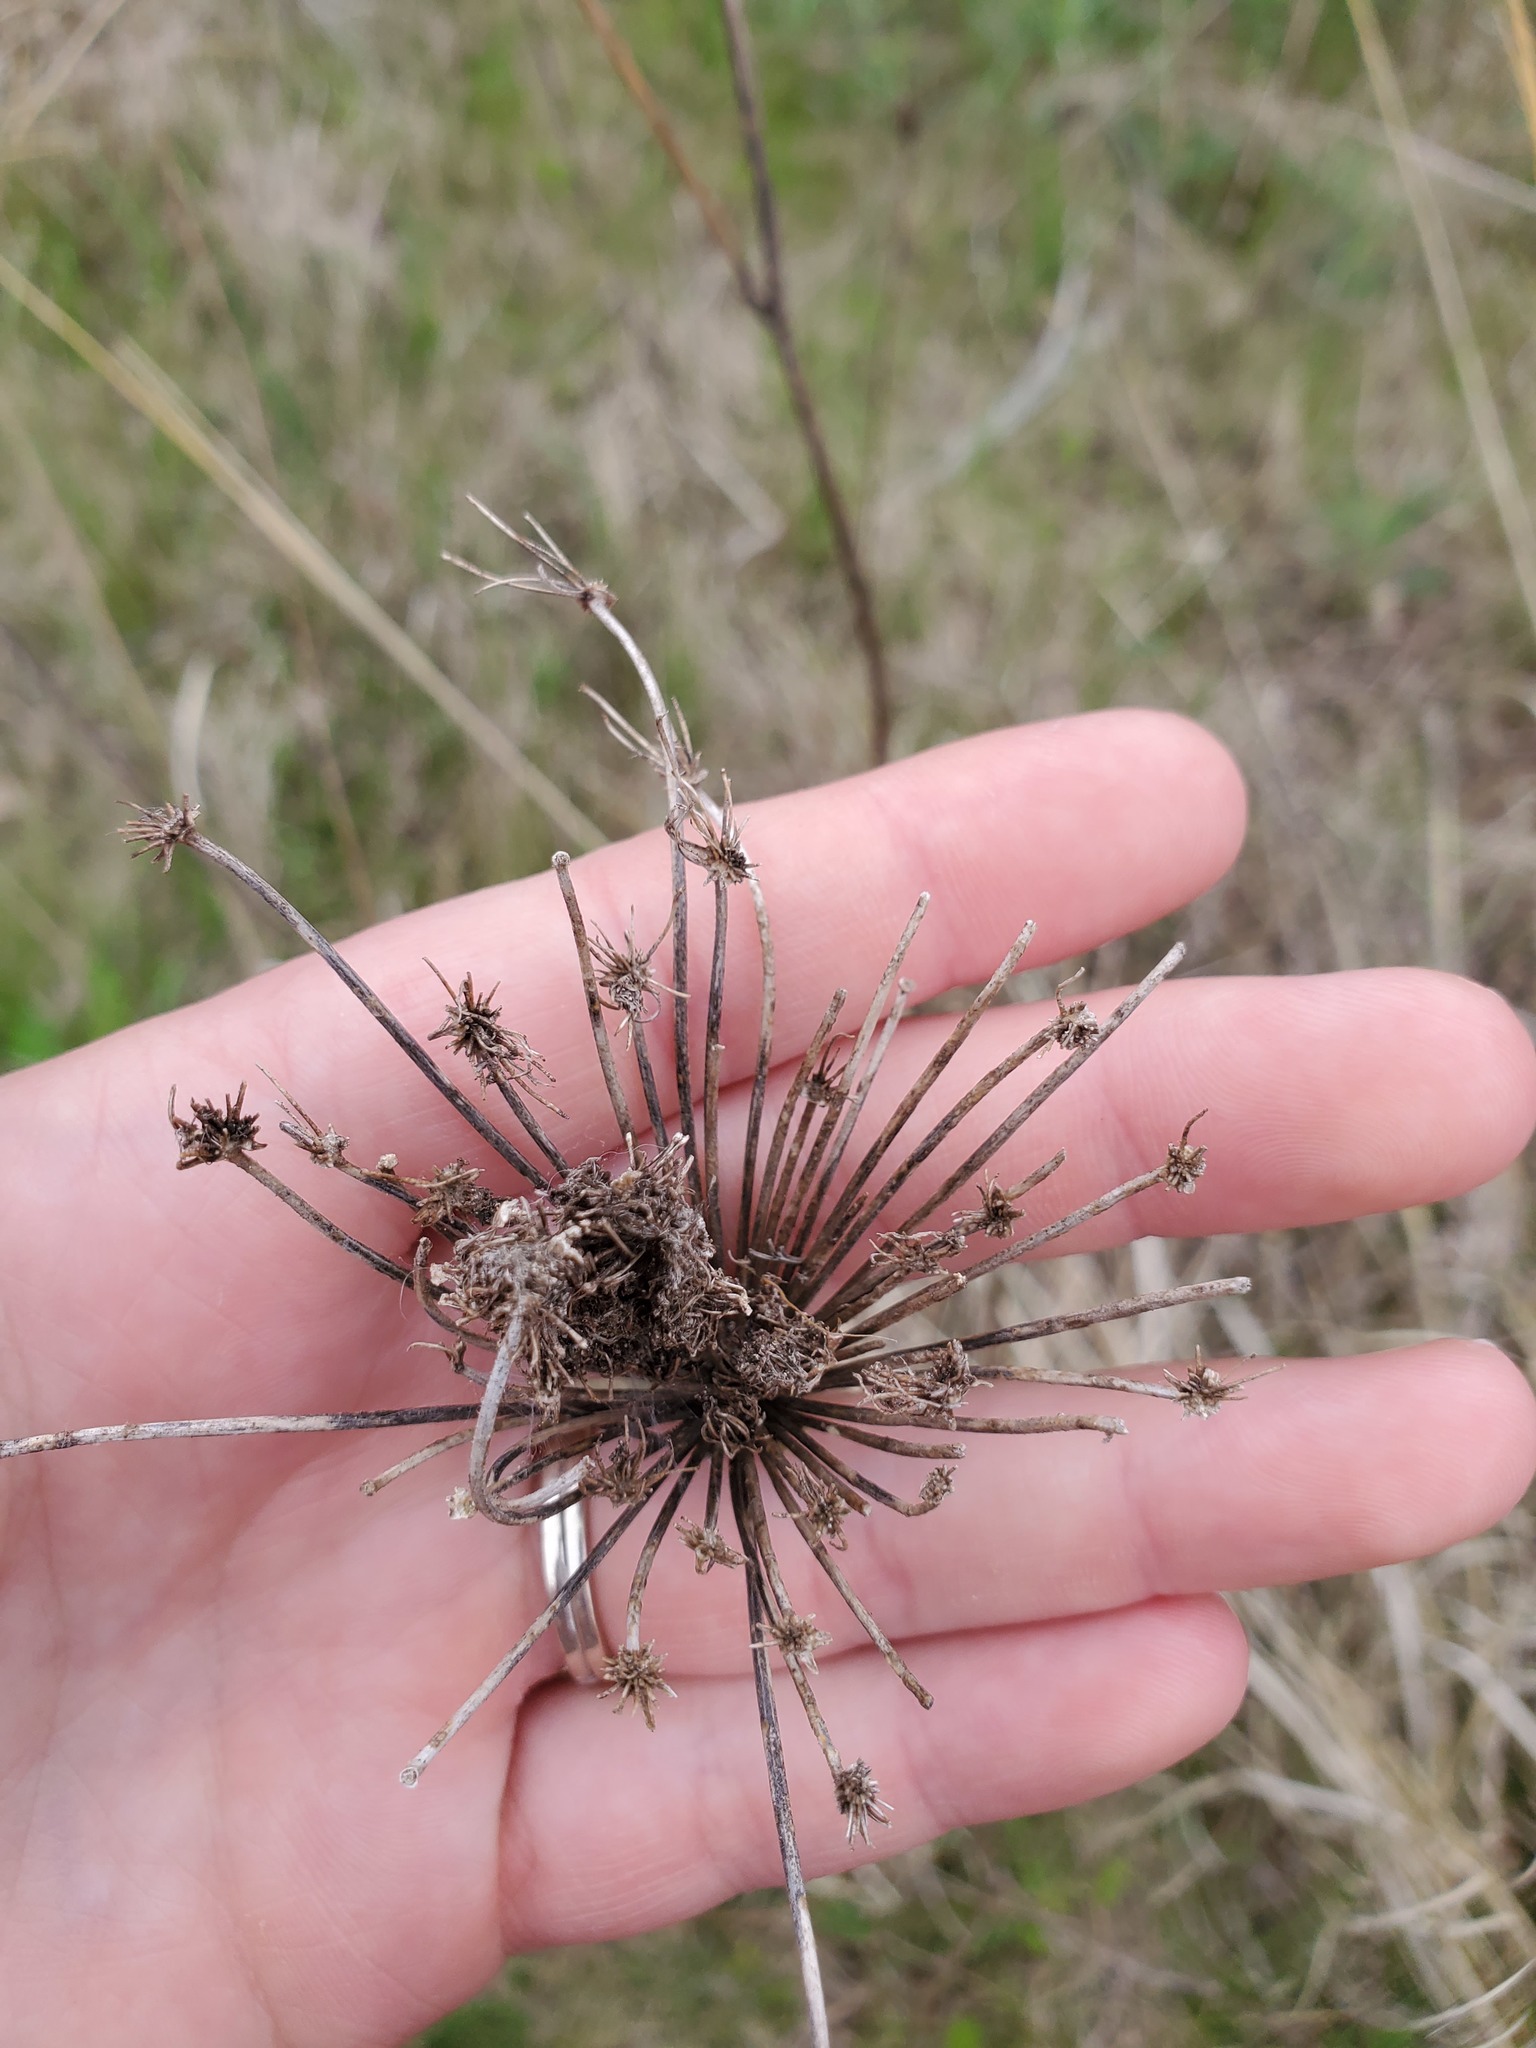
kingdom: Plantae
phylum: Tracheophyta
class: Magnoliopsida
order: Apiales
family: Apiaceae
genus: Daucus
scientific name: Daucus carota
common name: Wild carrot
